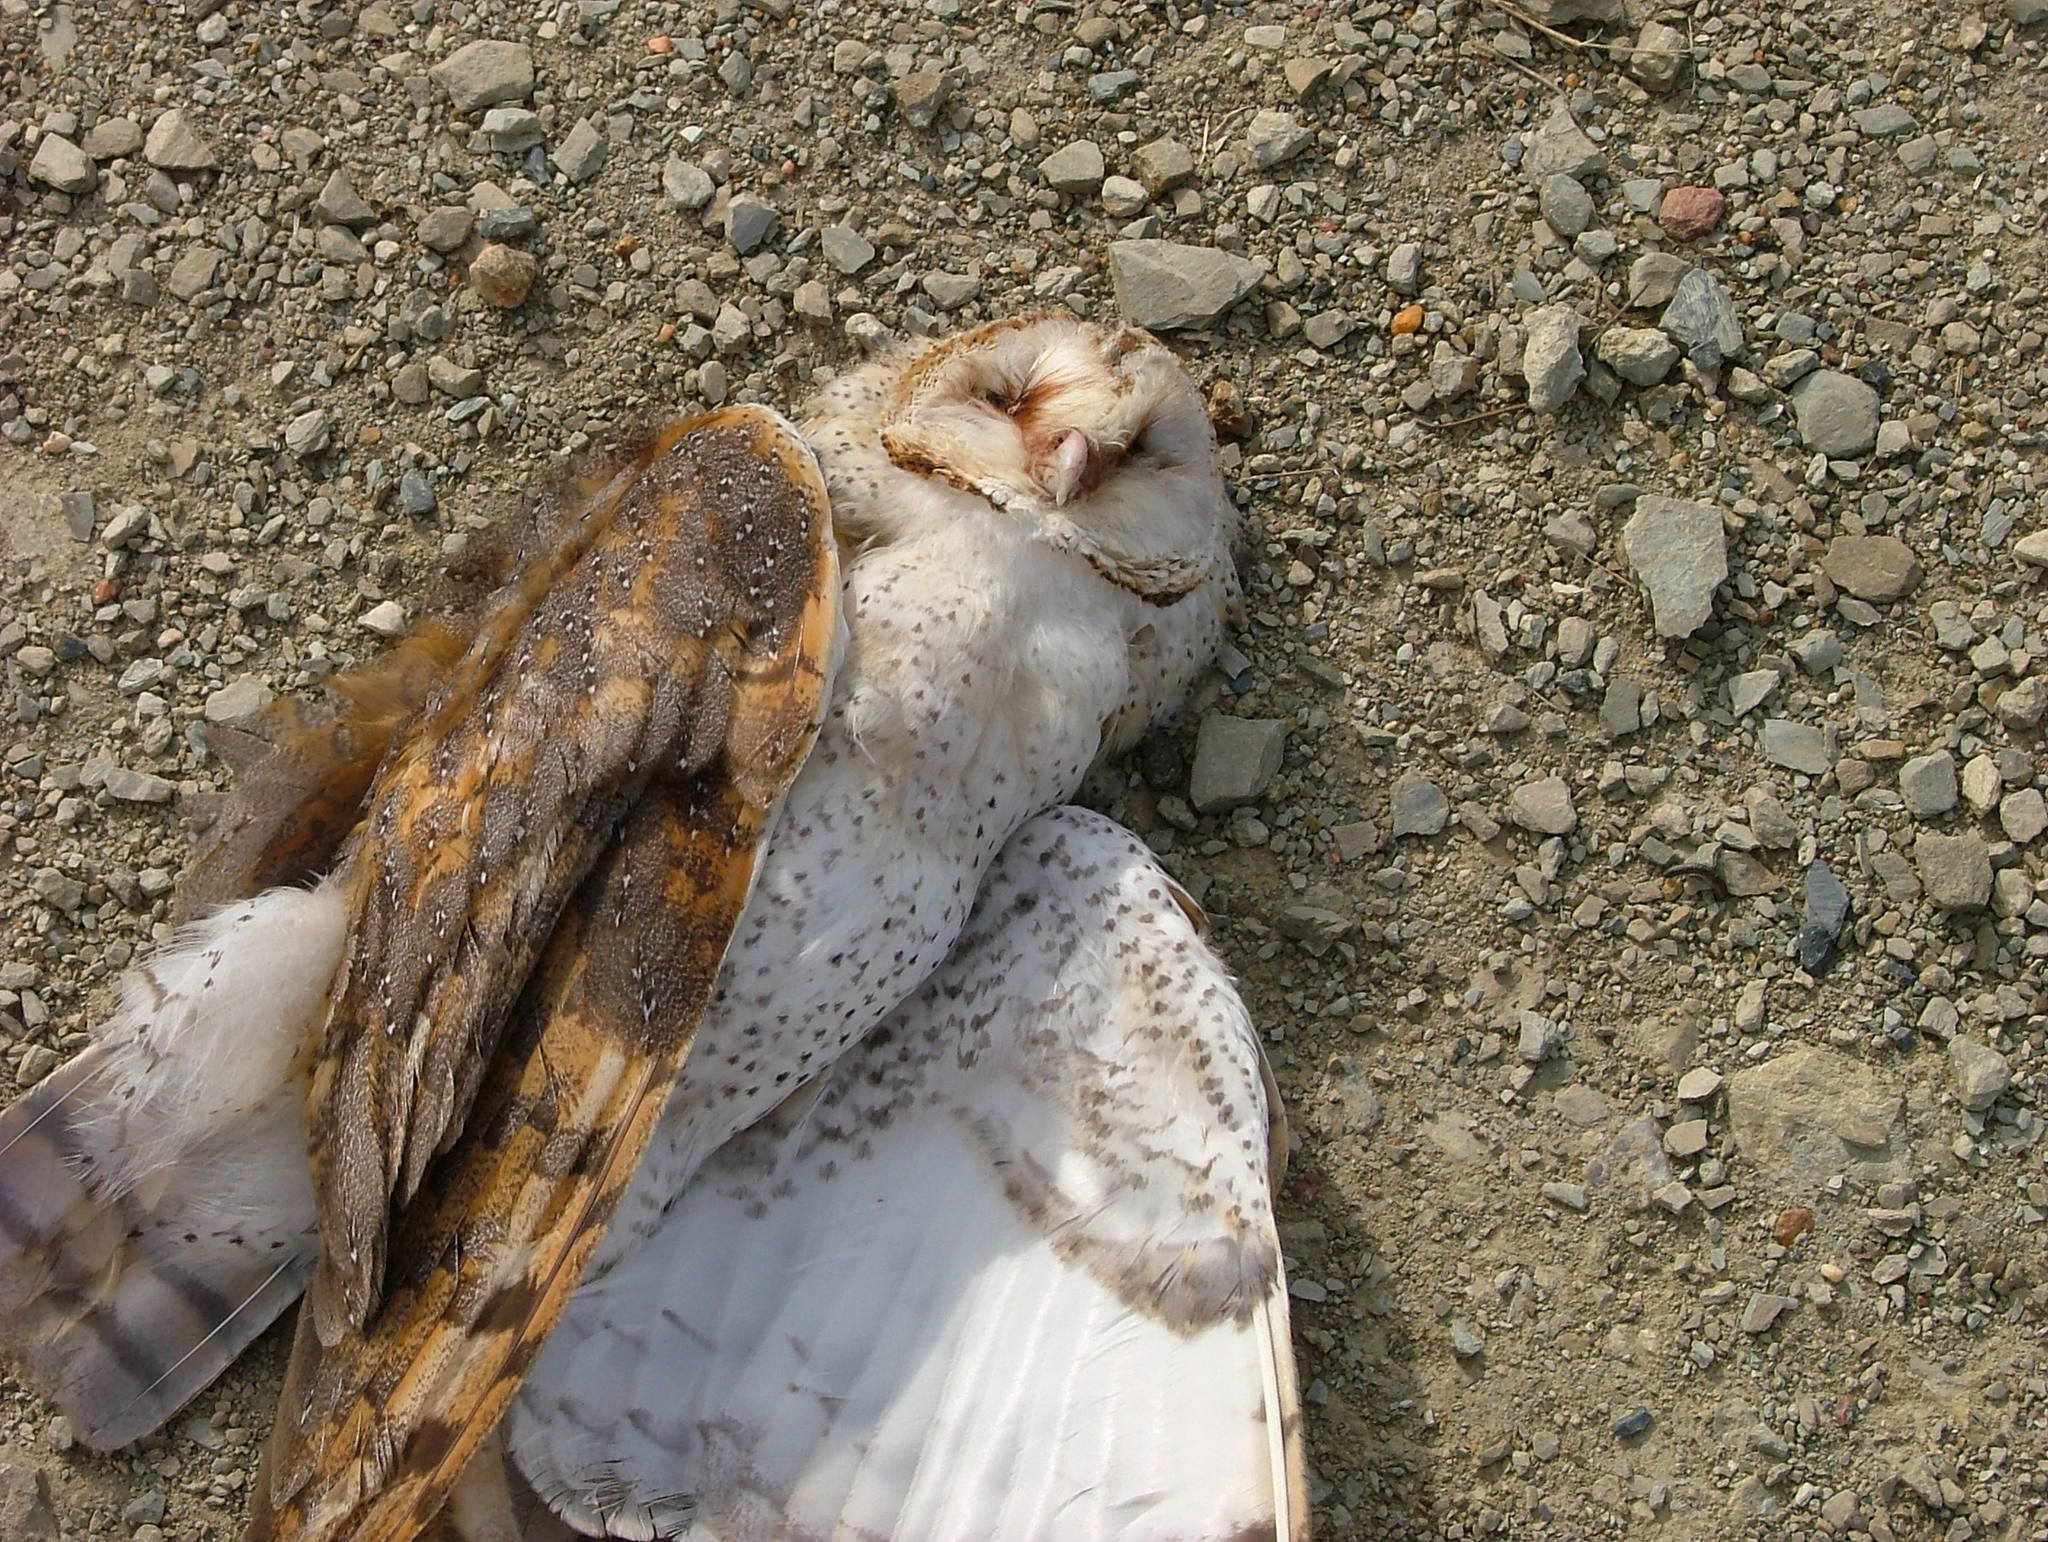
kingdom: Animalia
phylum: Chordata
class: Aves
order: Strigiformes
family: Tytonidae
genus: Tyto
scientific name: Tyto alba
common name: Barn owl
